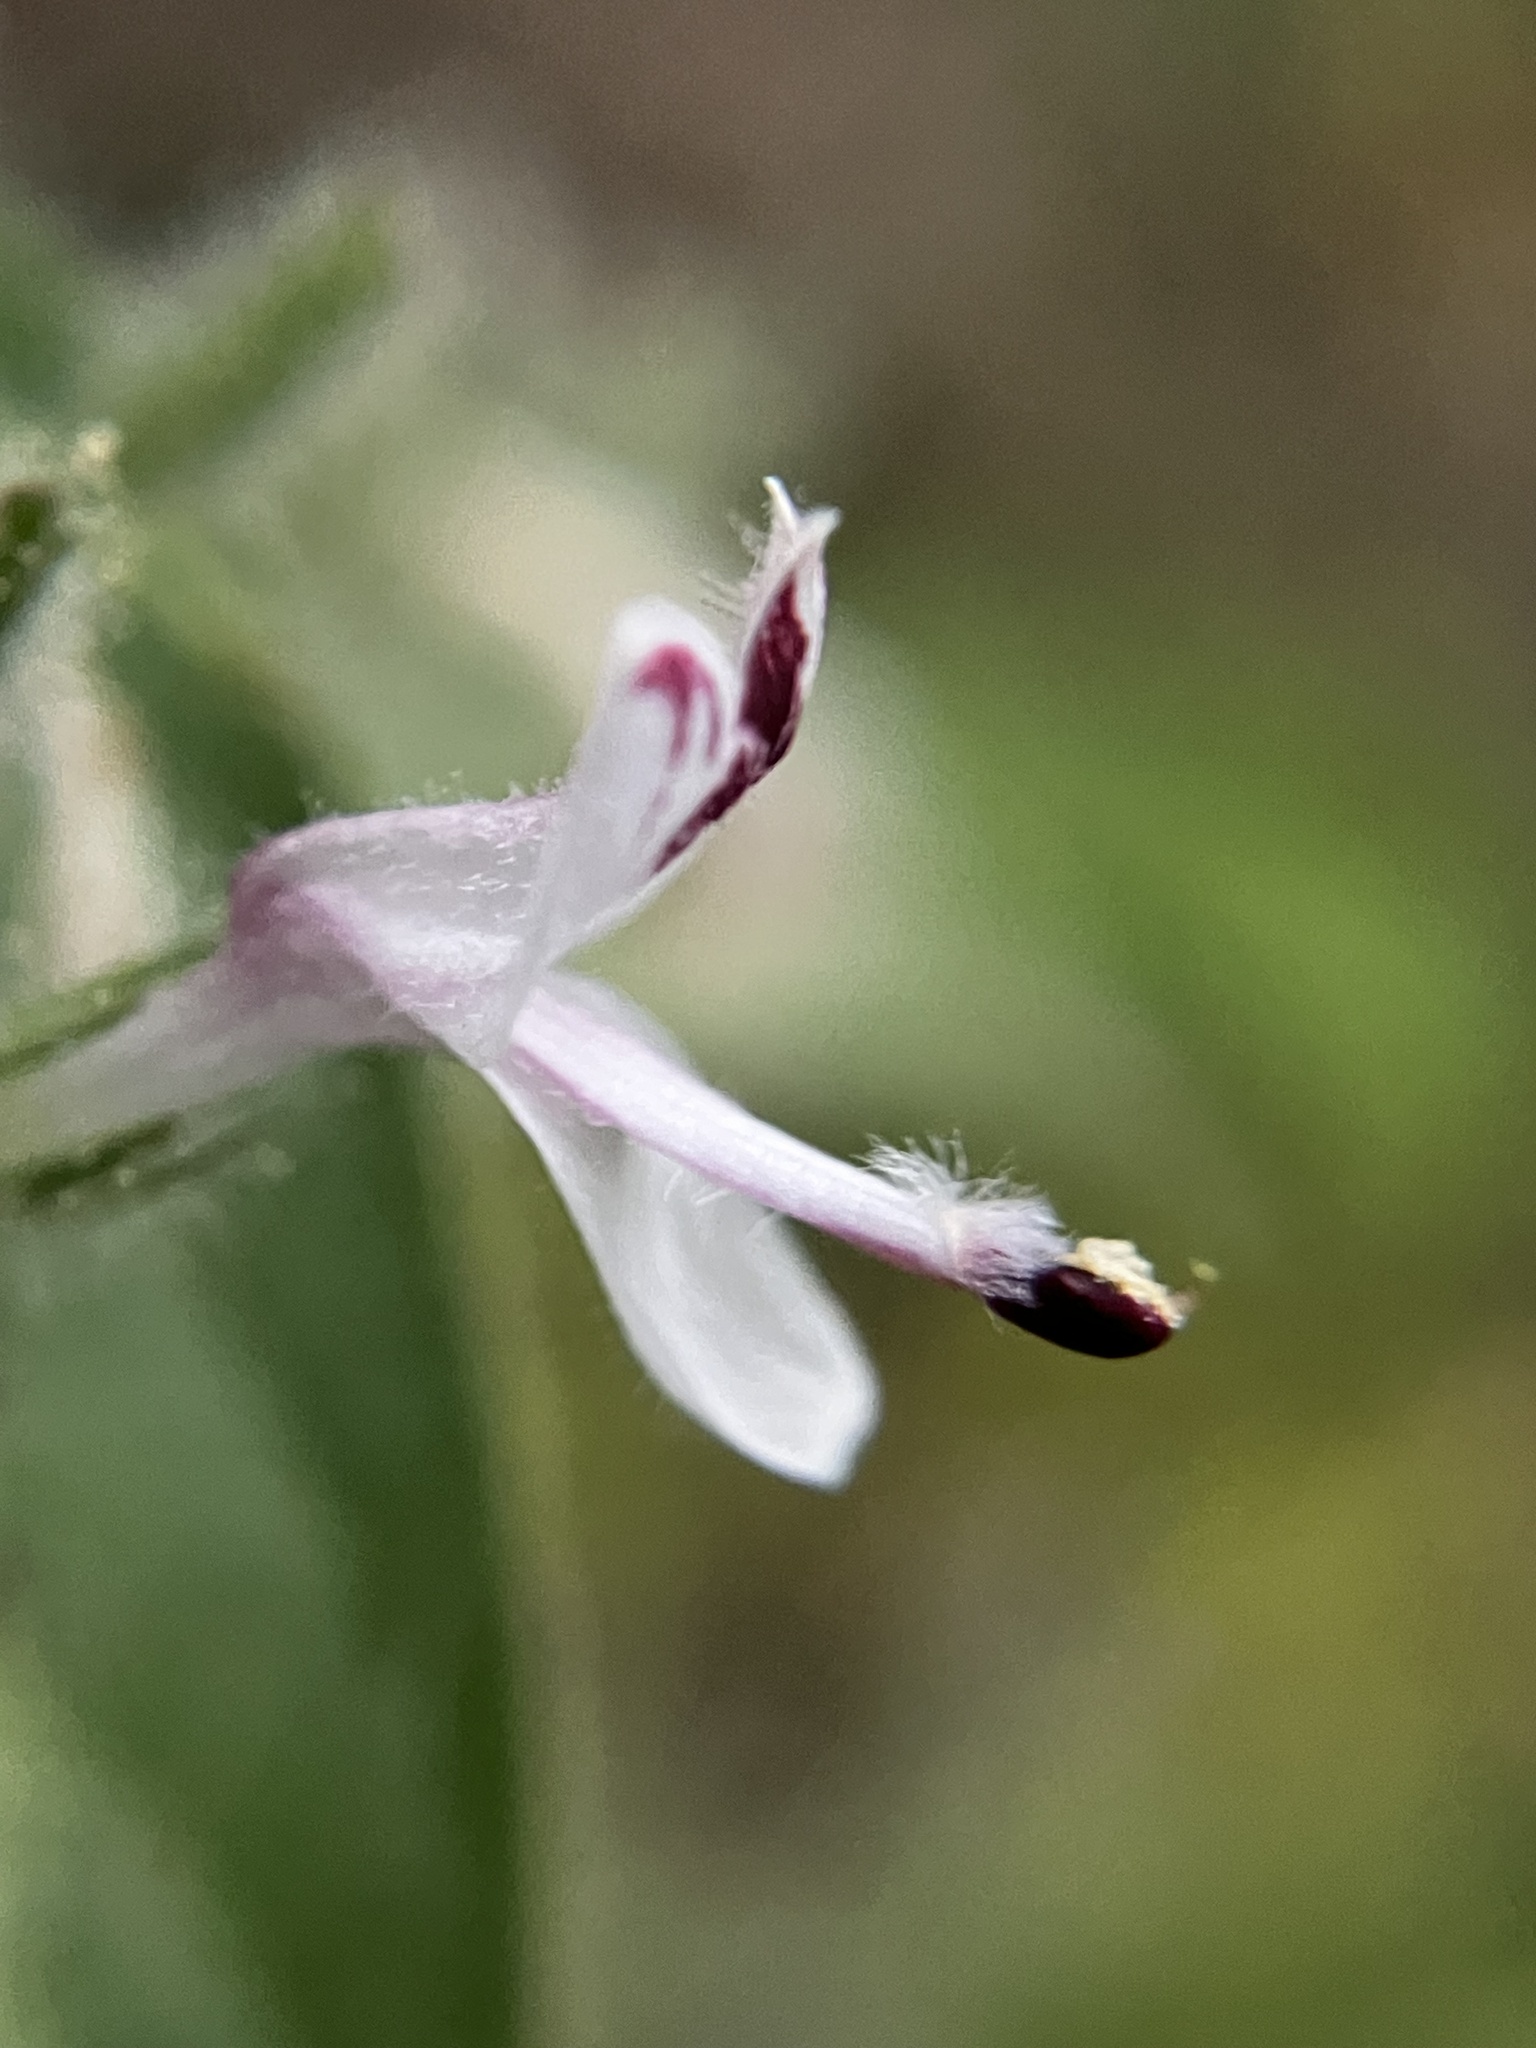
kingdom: Plantae
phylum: Tracheophyta
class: Magnoliopsida
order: Lamiales
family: Acanthaceae
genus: Andrographis
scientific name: Andrographis paniculata
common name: Green chireta
